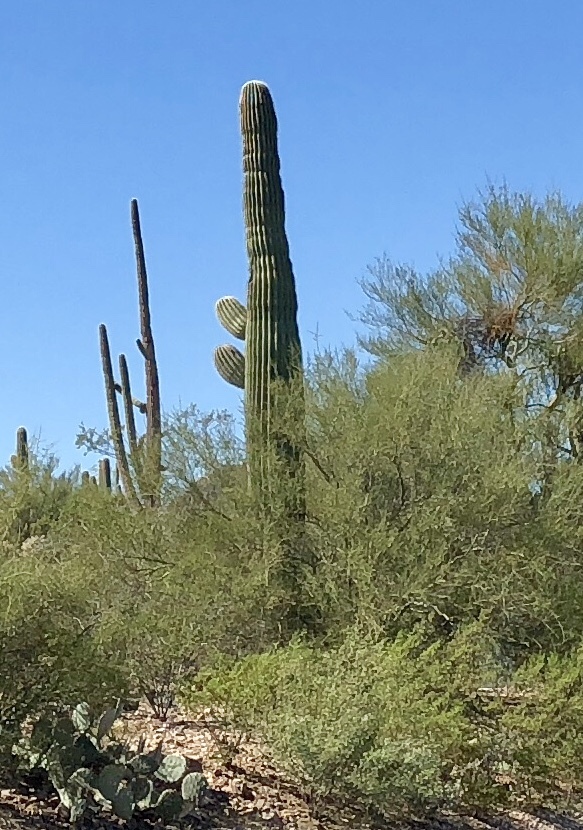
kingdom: Plantae
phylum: Tracheophyta
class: Magnoliopsida
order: Caryophyllales
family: Cactaceae
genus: Carnegiea
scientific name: Carnegiea gigantea
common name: Saguaro
